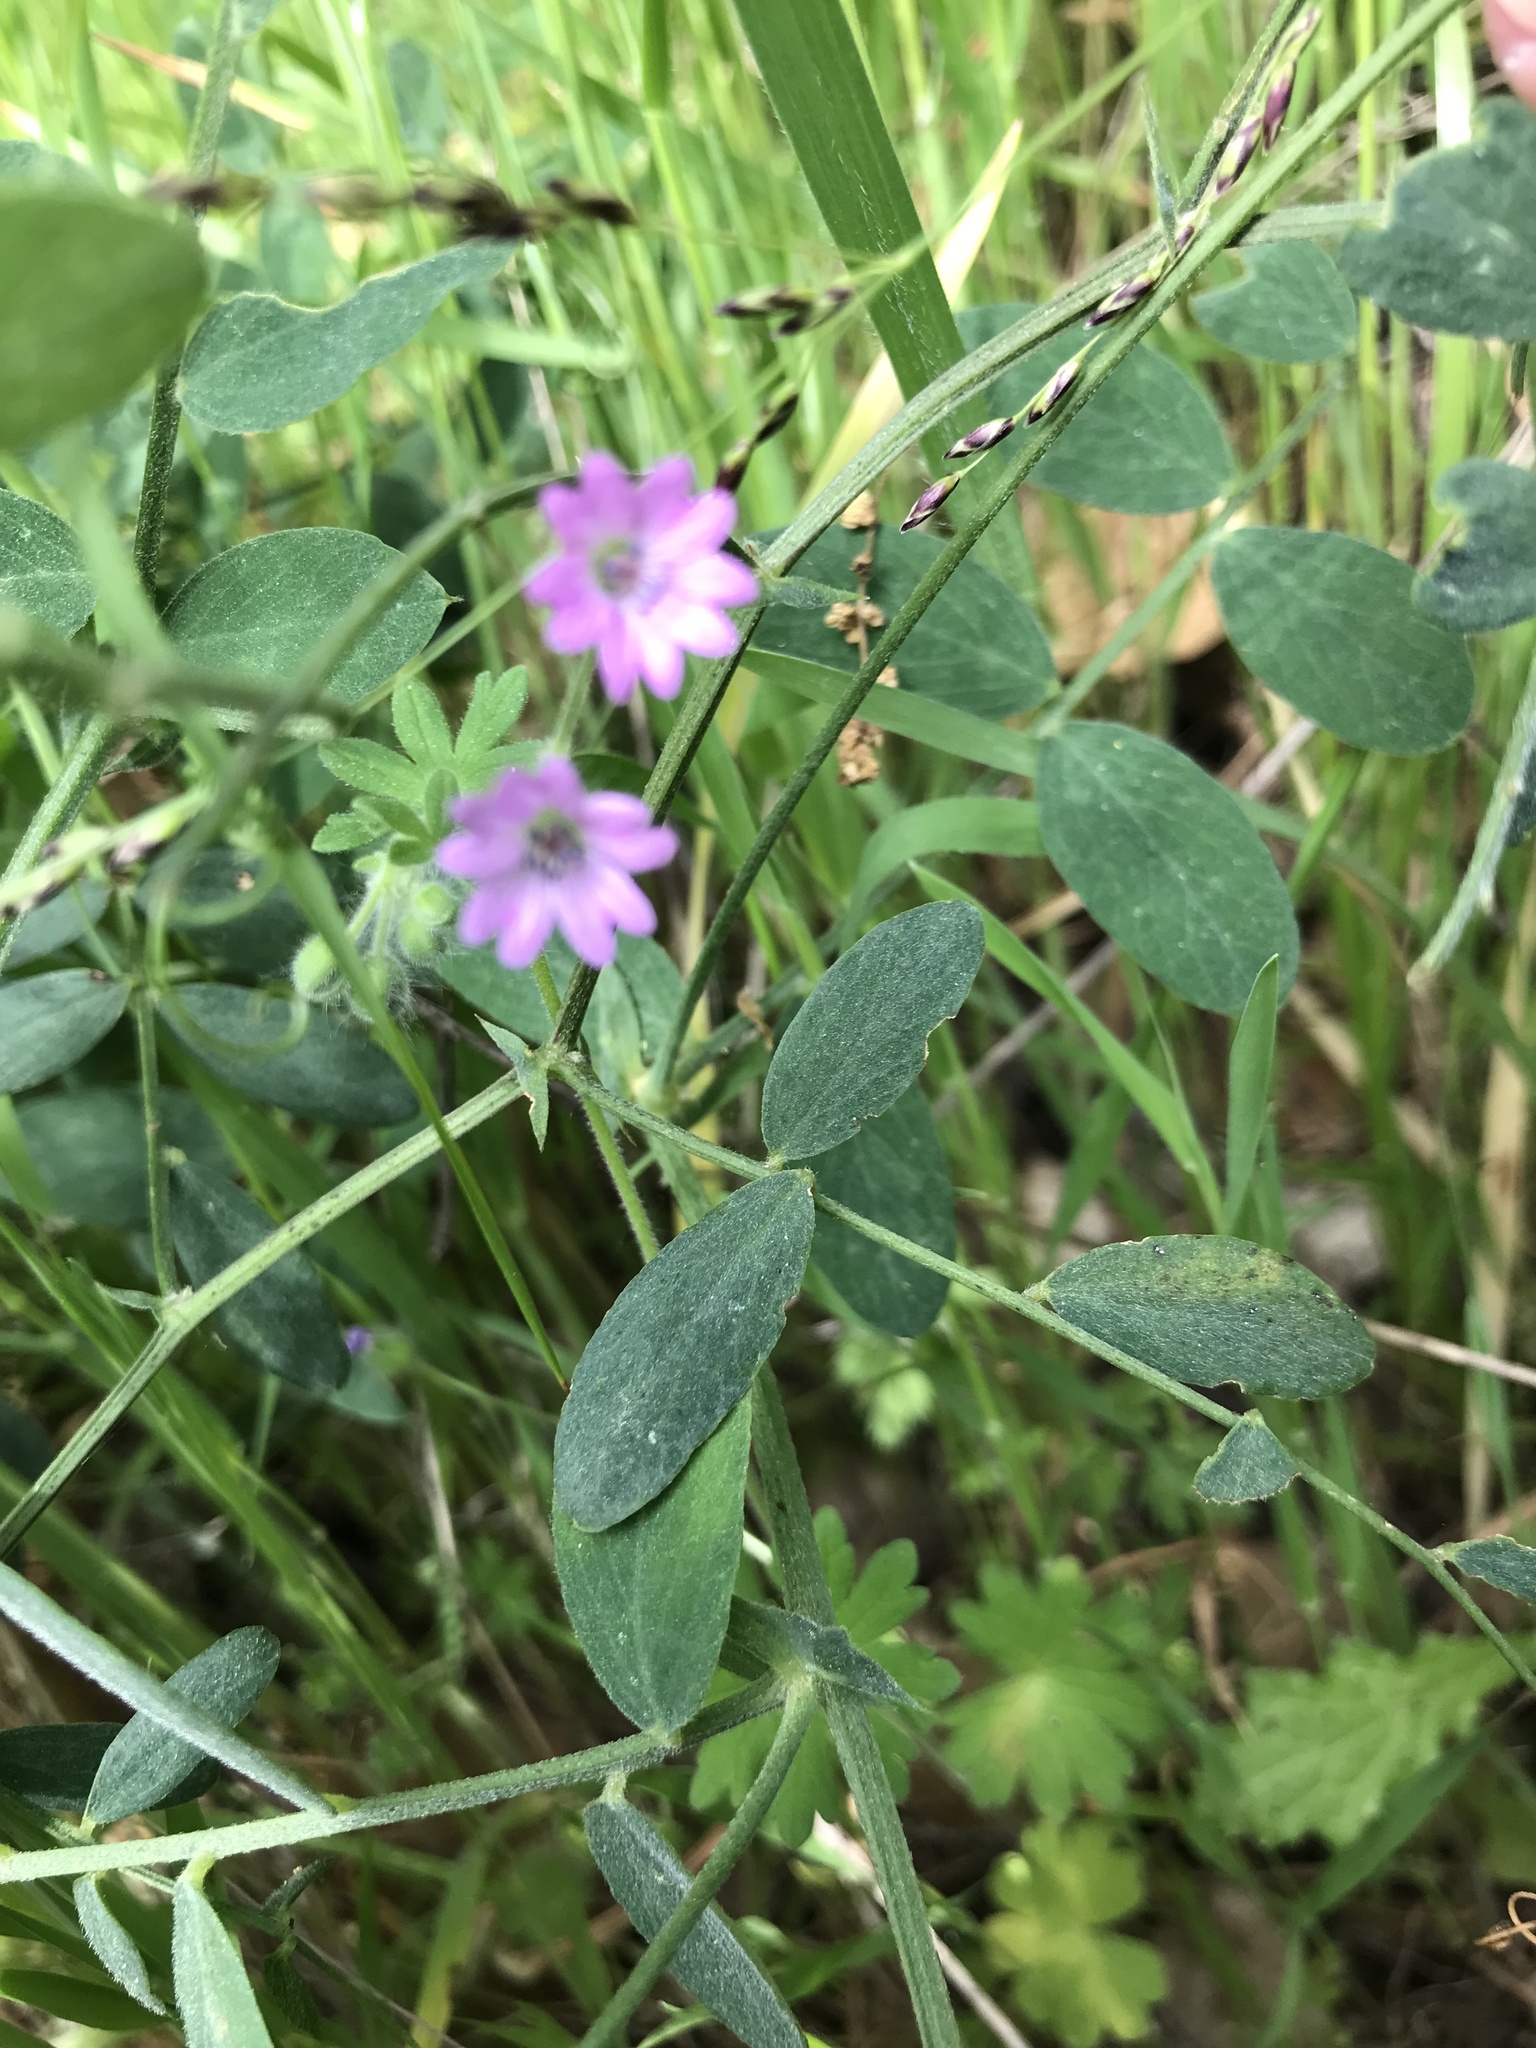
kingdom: Plantae
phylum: Tracheophyta
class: Magnoliopsida
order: Geraniales
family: Geraniaceae
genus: Geranium
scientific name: Geranium molle
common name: Dove's-foot crane's-bill
